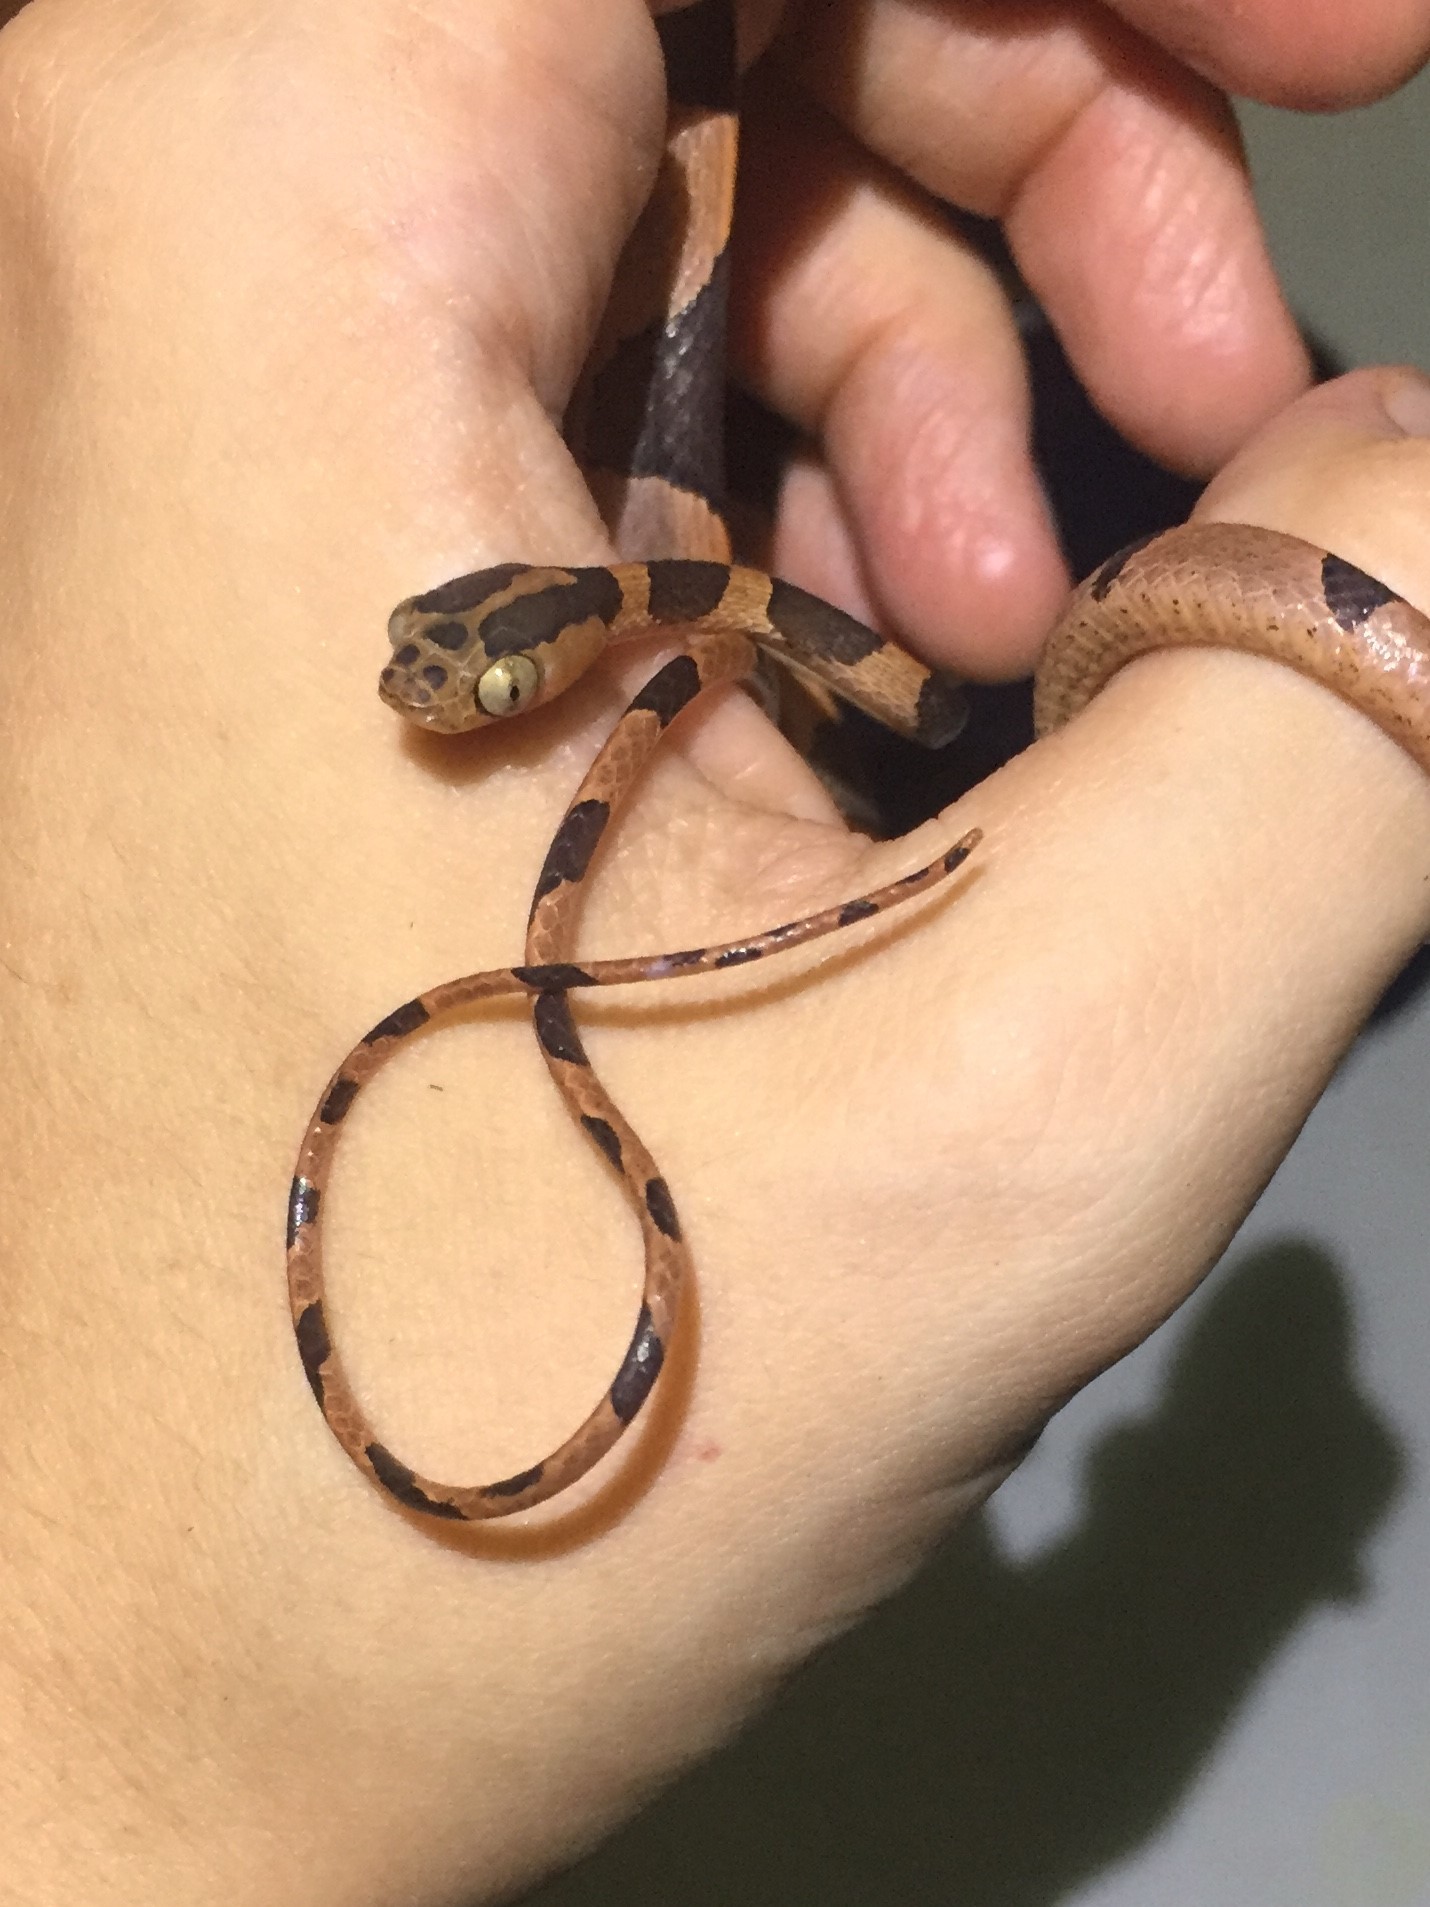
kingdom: Animalia
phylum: Chordata
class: Squamata
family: Colubridae
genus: Imantodes
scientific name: Imantodes cenchoa
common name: Blunthead tree snake
